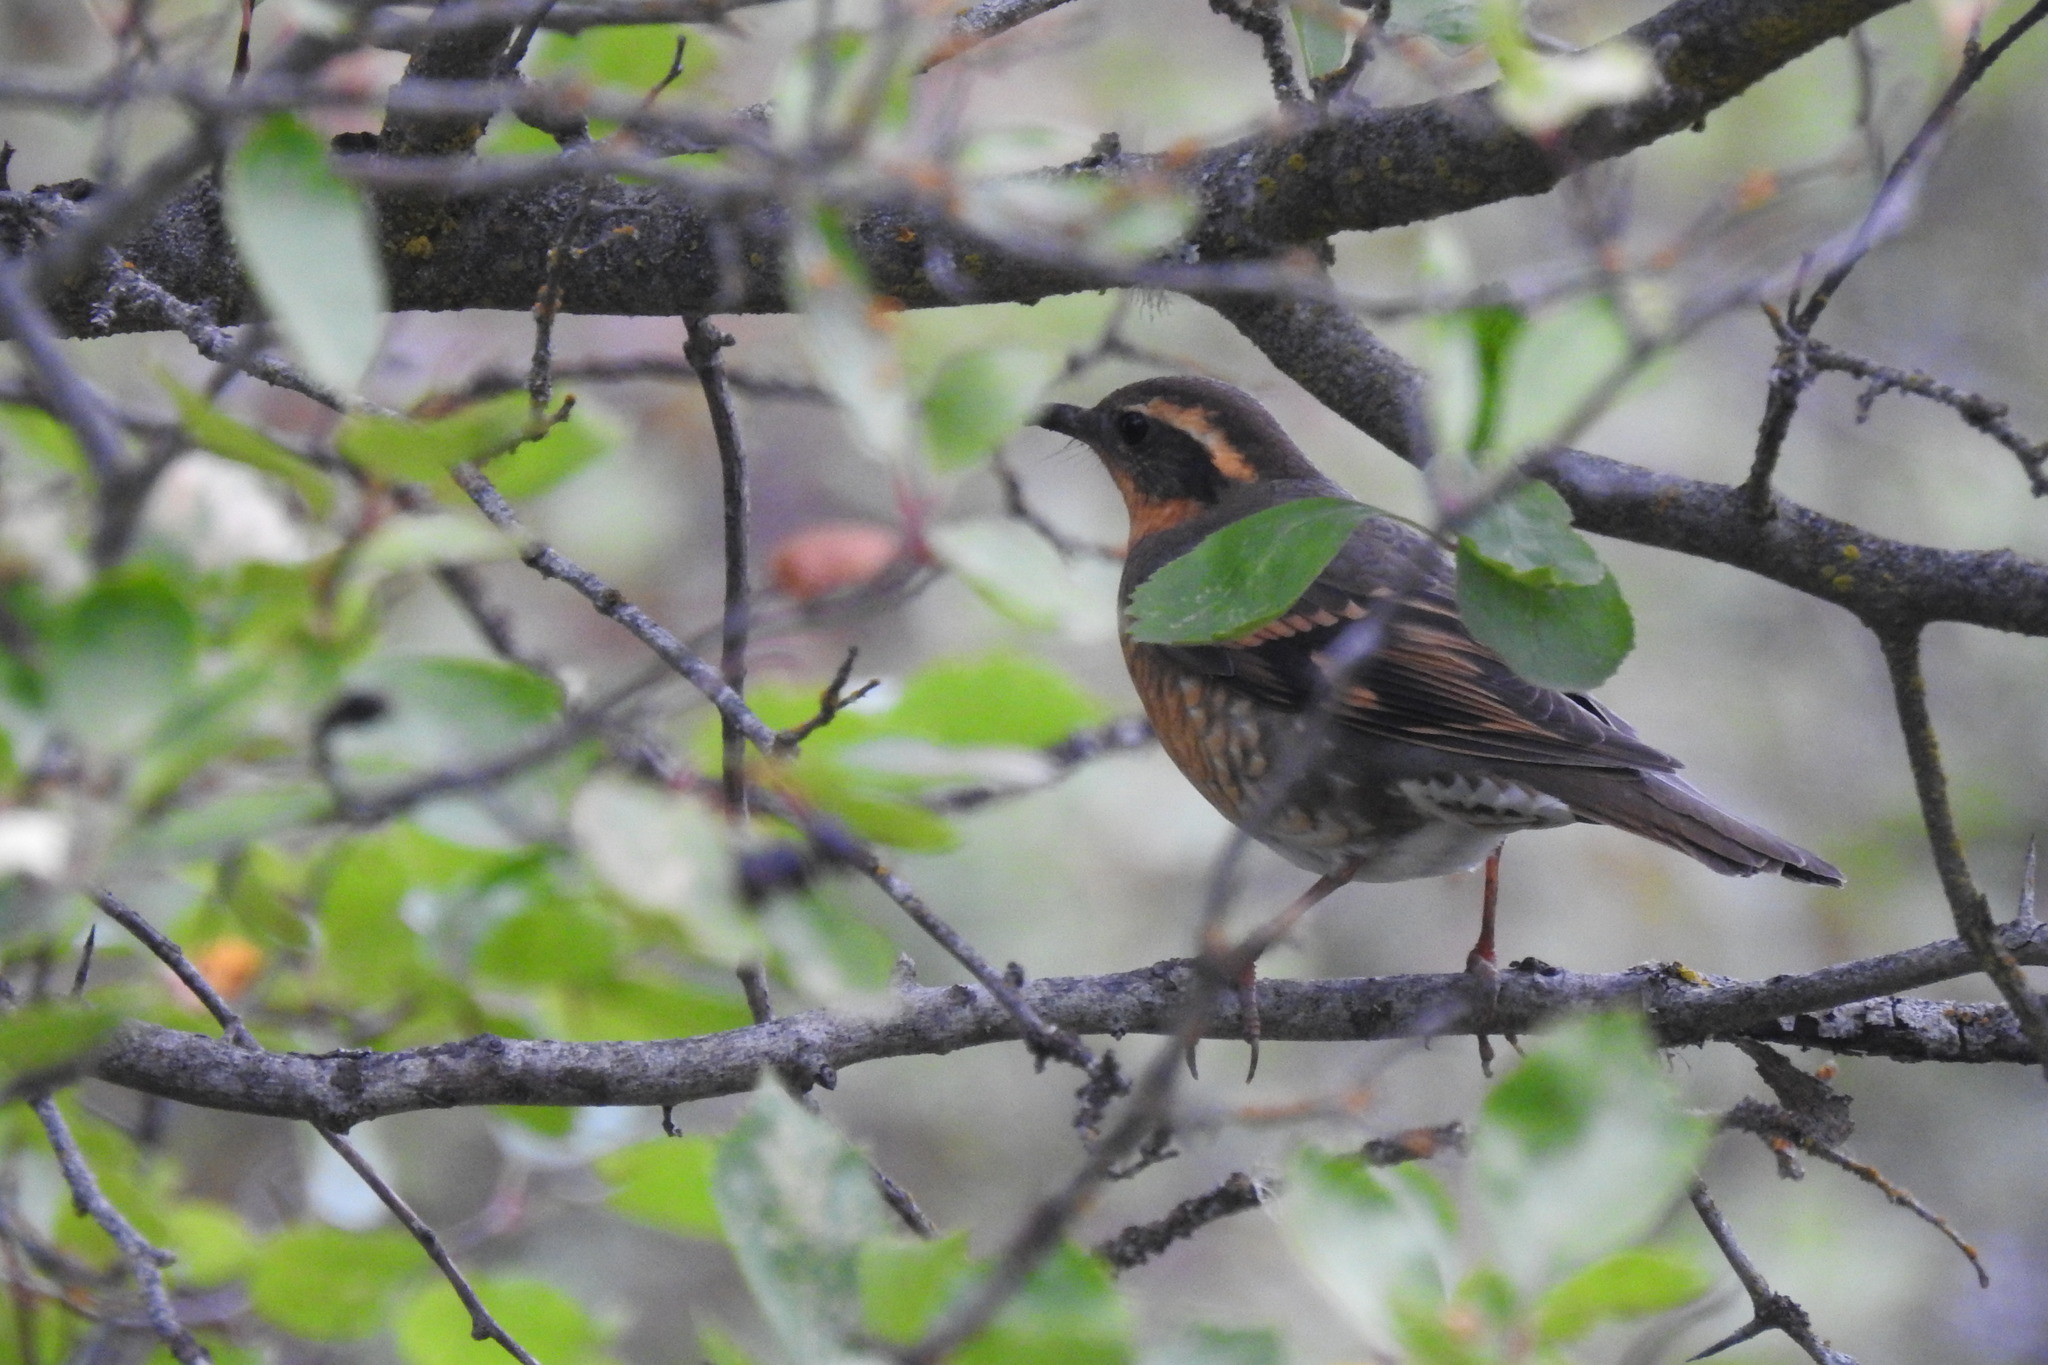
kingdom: Animalia
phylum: Chordata
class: Aves
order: Passeriformes
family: Turdidae
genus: Ixoreus
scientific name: Ixoreus naevius
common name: Varied thrush
